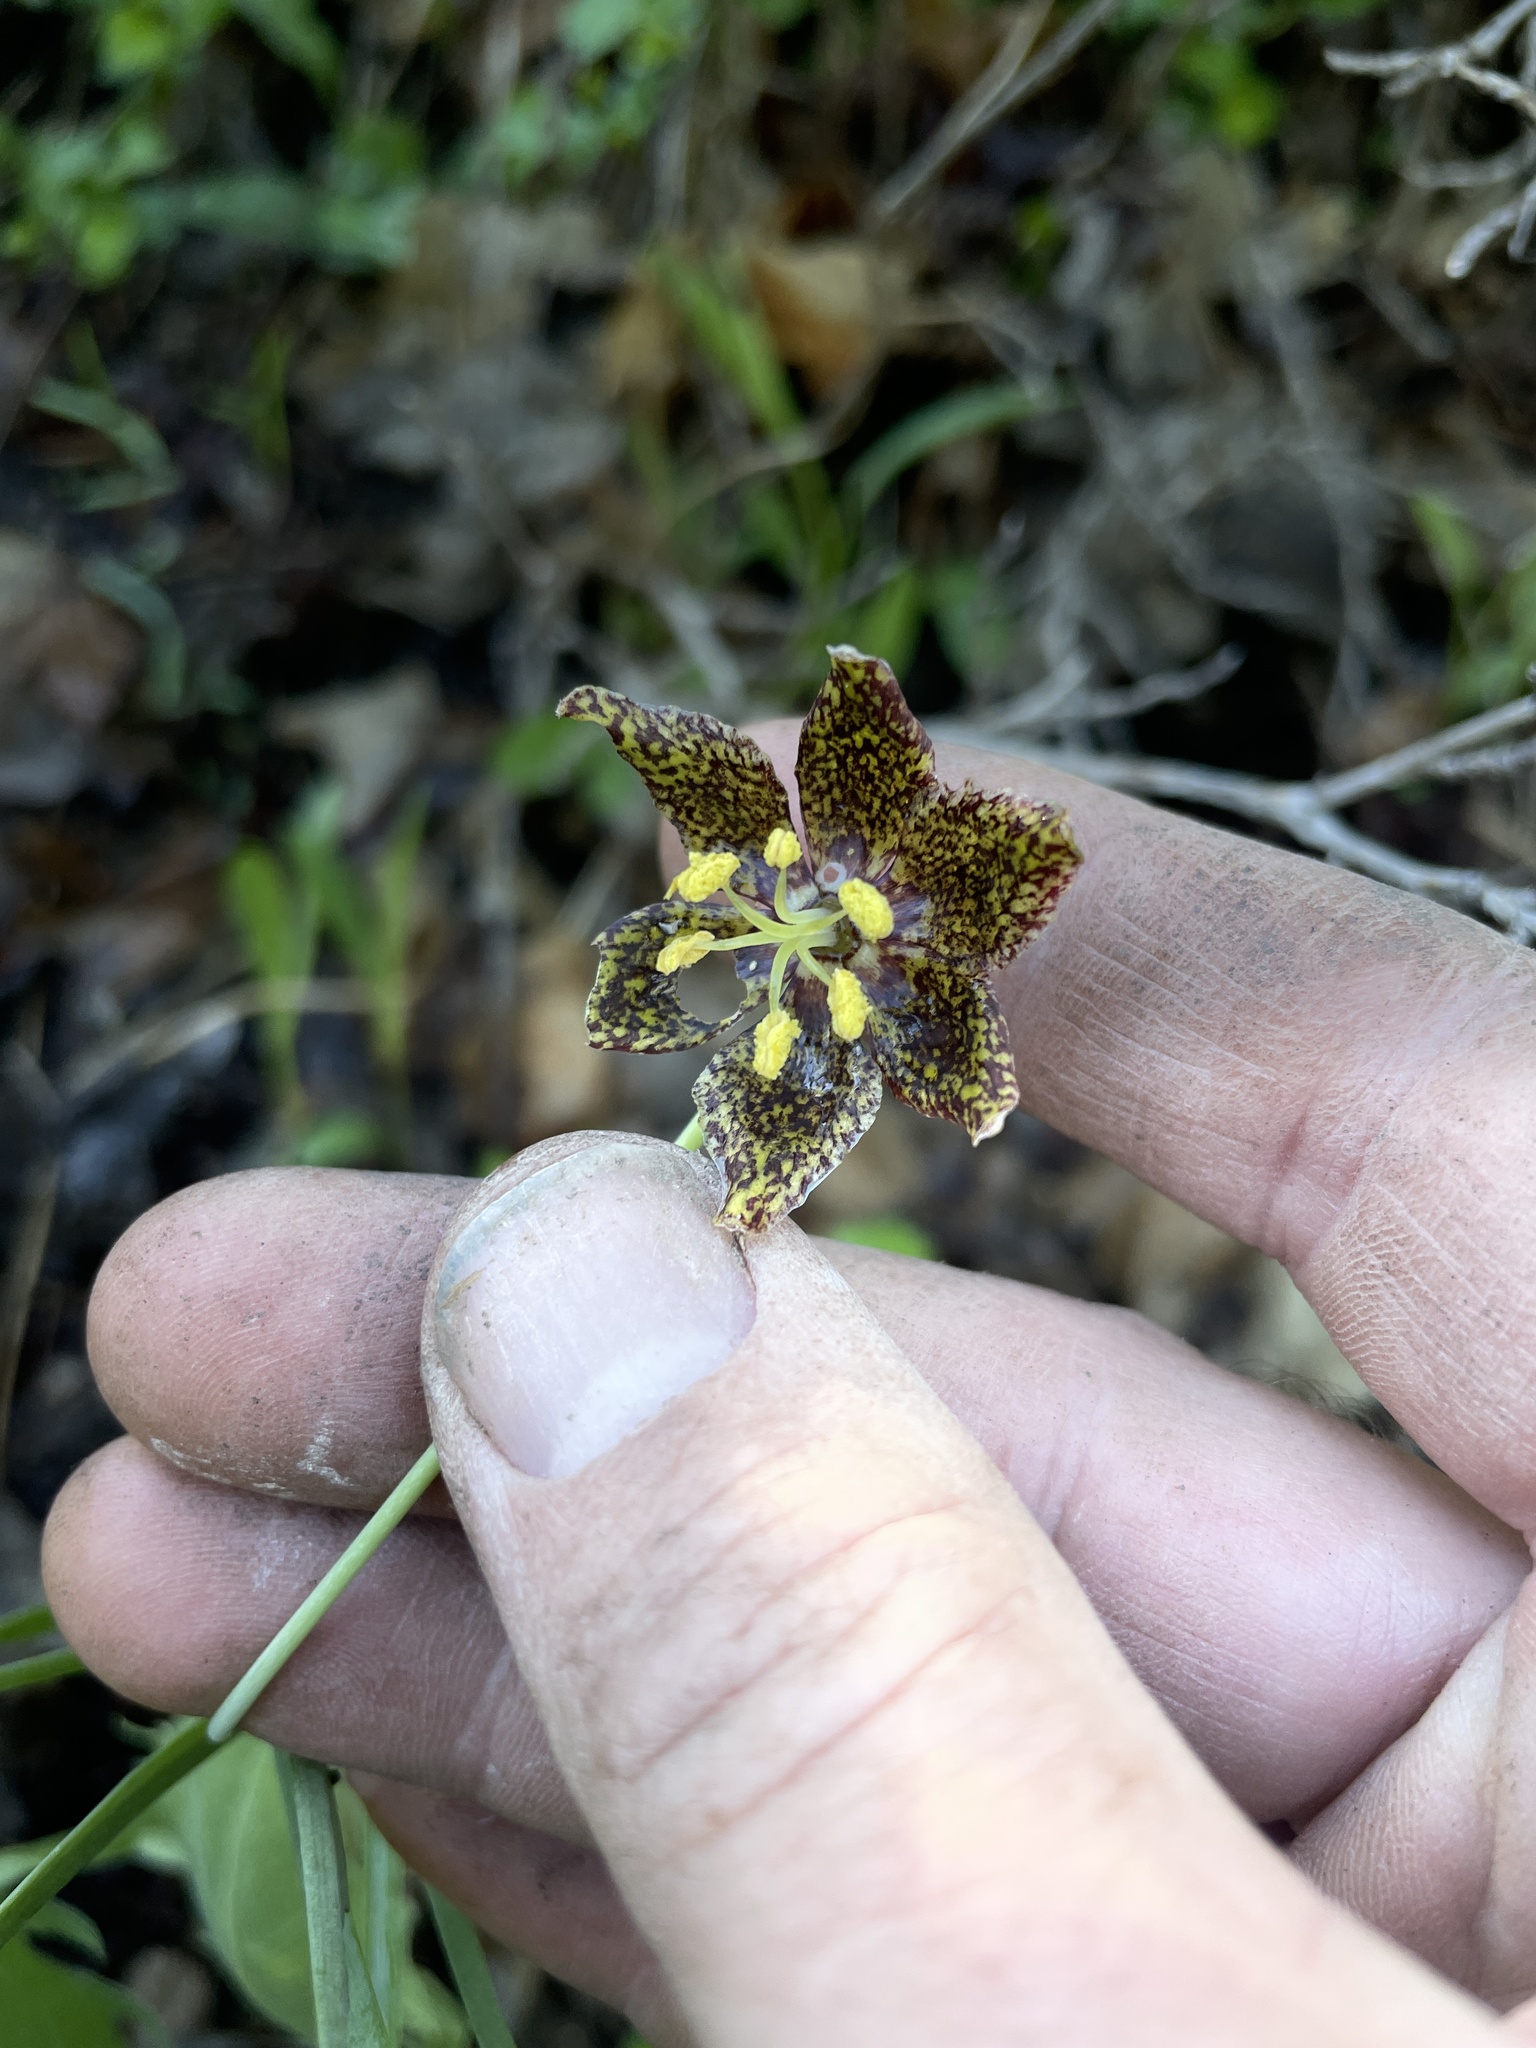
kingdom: Plantae
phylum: Tracheophyta
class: Liliopsida
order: Liliales
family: Liliaceae
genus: Fritillaria
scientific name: Fritillaria atropurpurea
